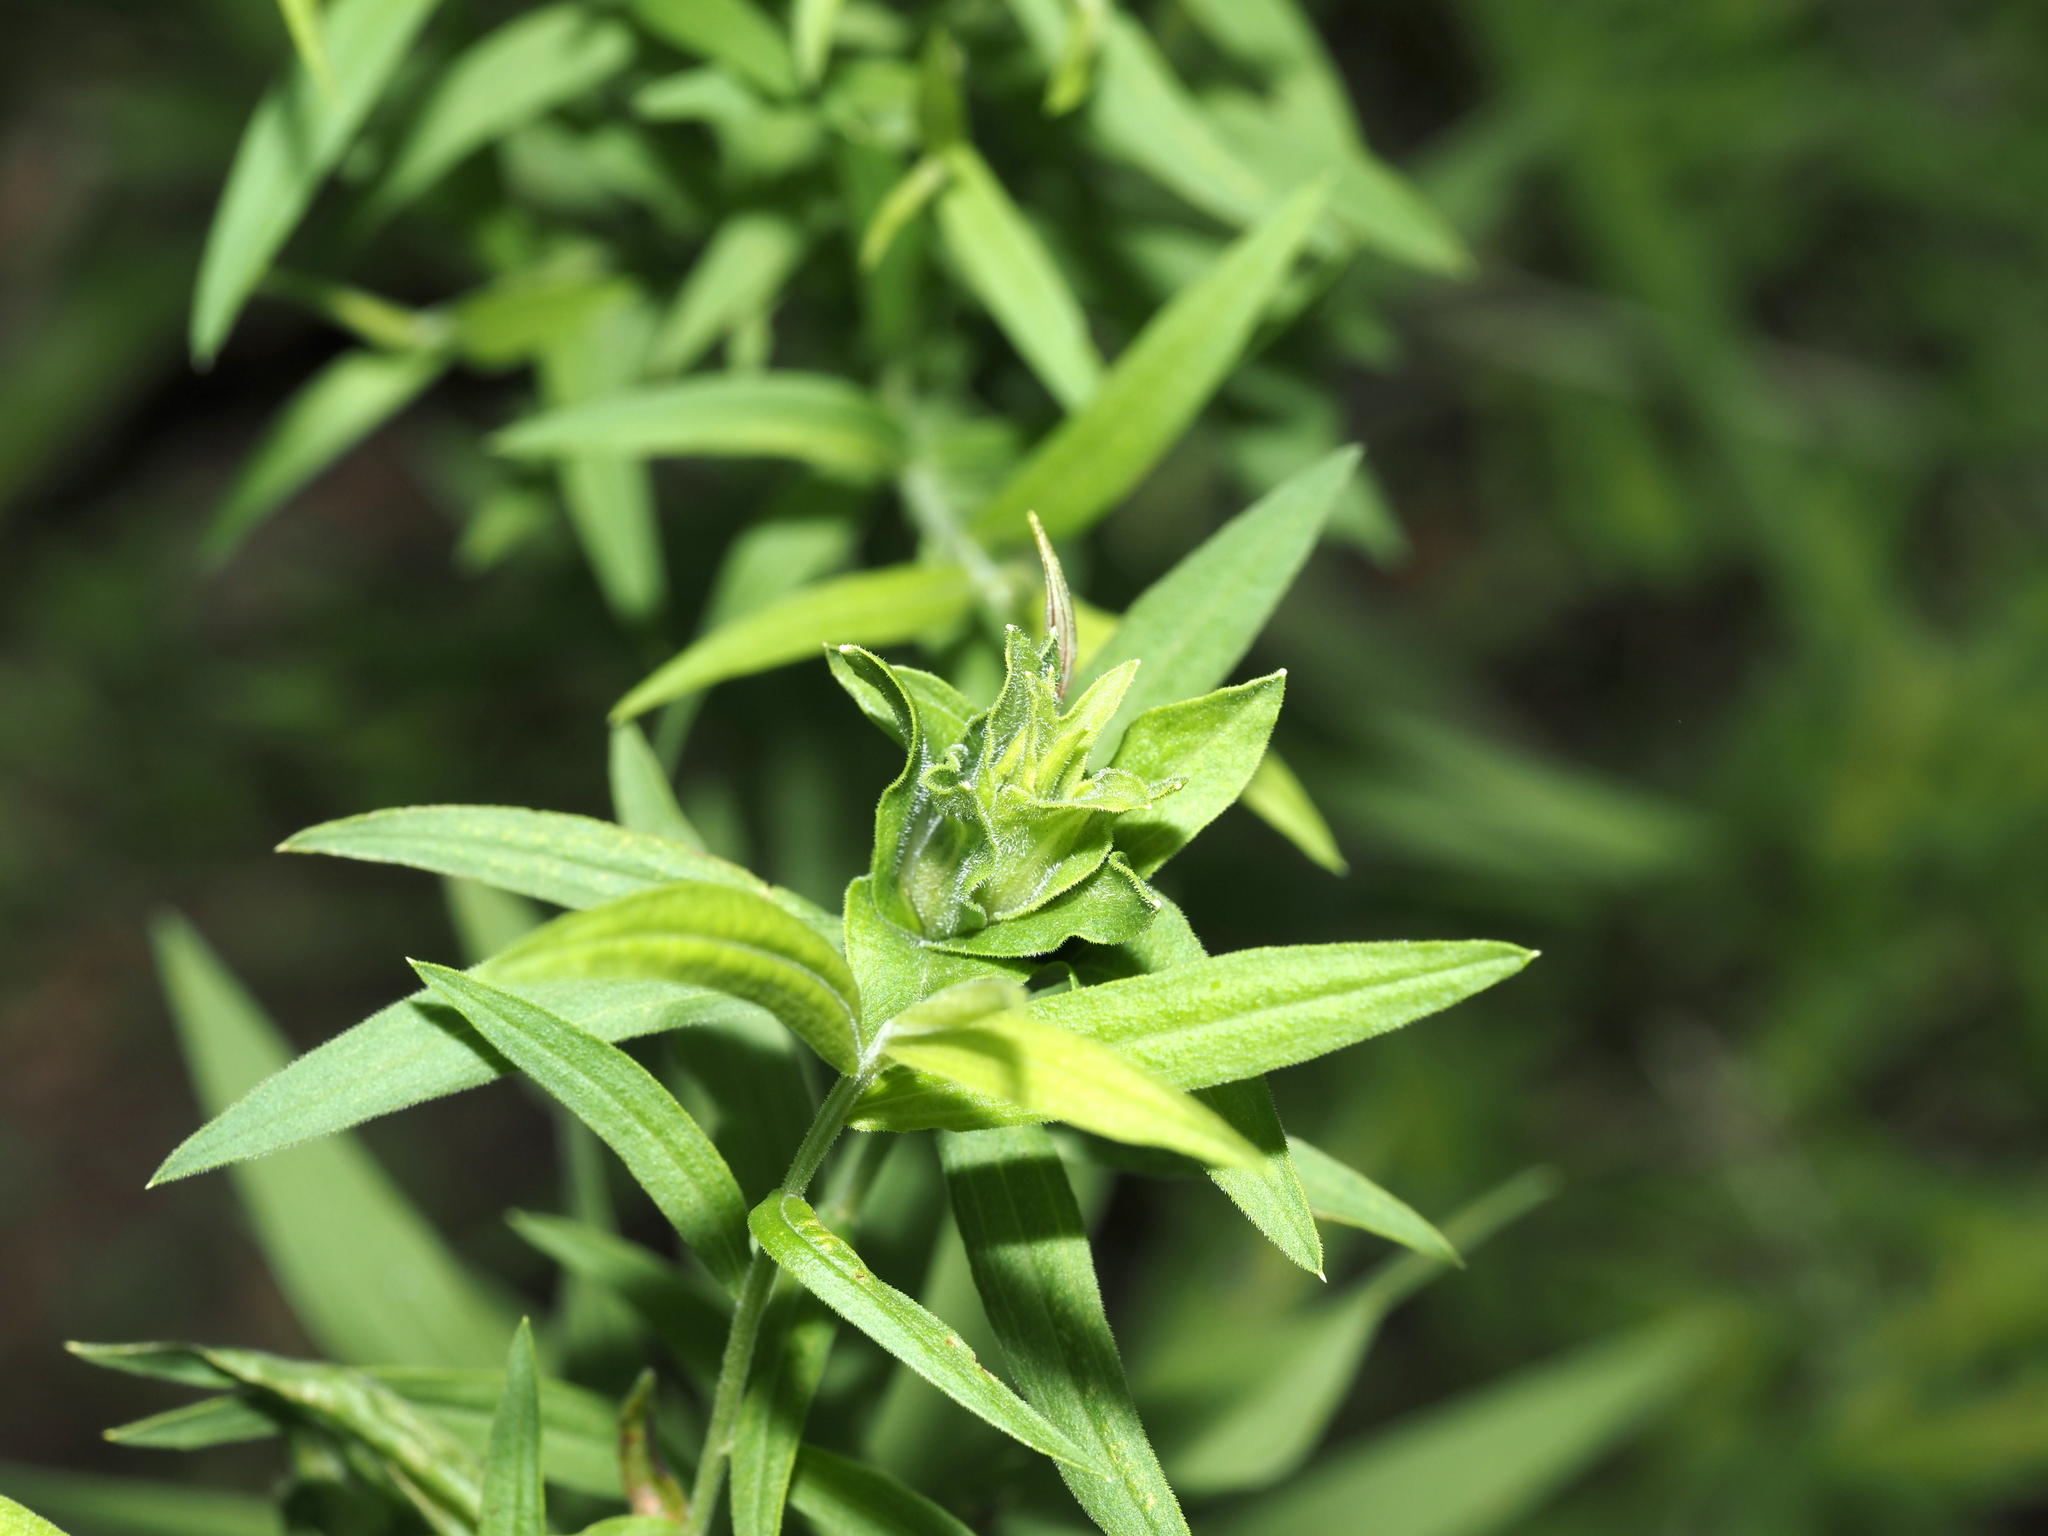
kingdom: Animalia
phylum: Arthropoda
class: Insecta
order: Diptera
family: Cecidomyiidae
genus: Asphondylia
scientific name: Asphondylia pseudorosa
